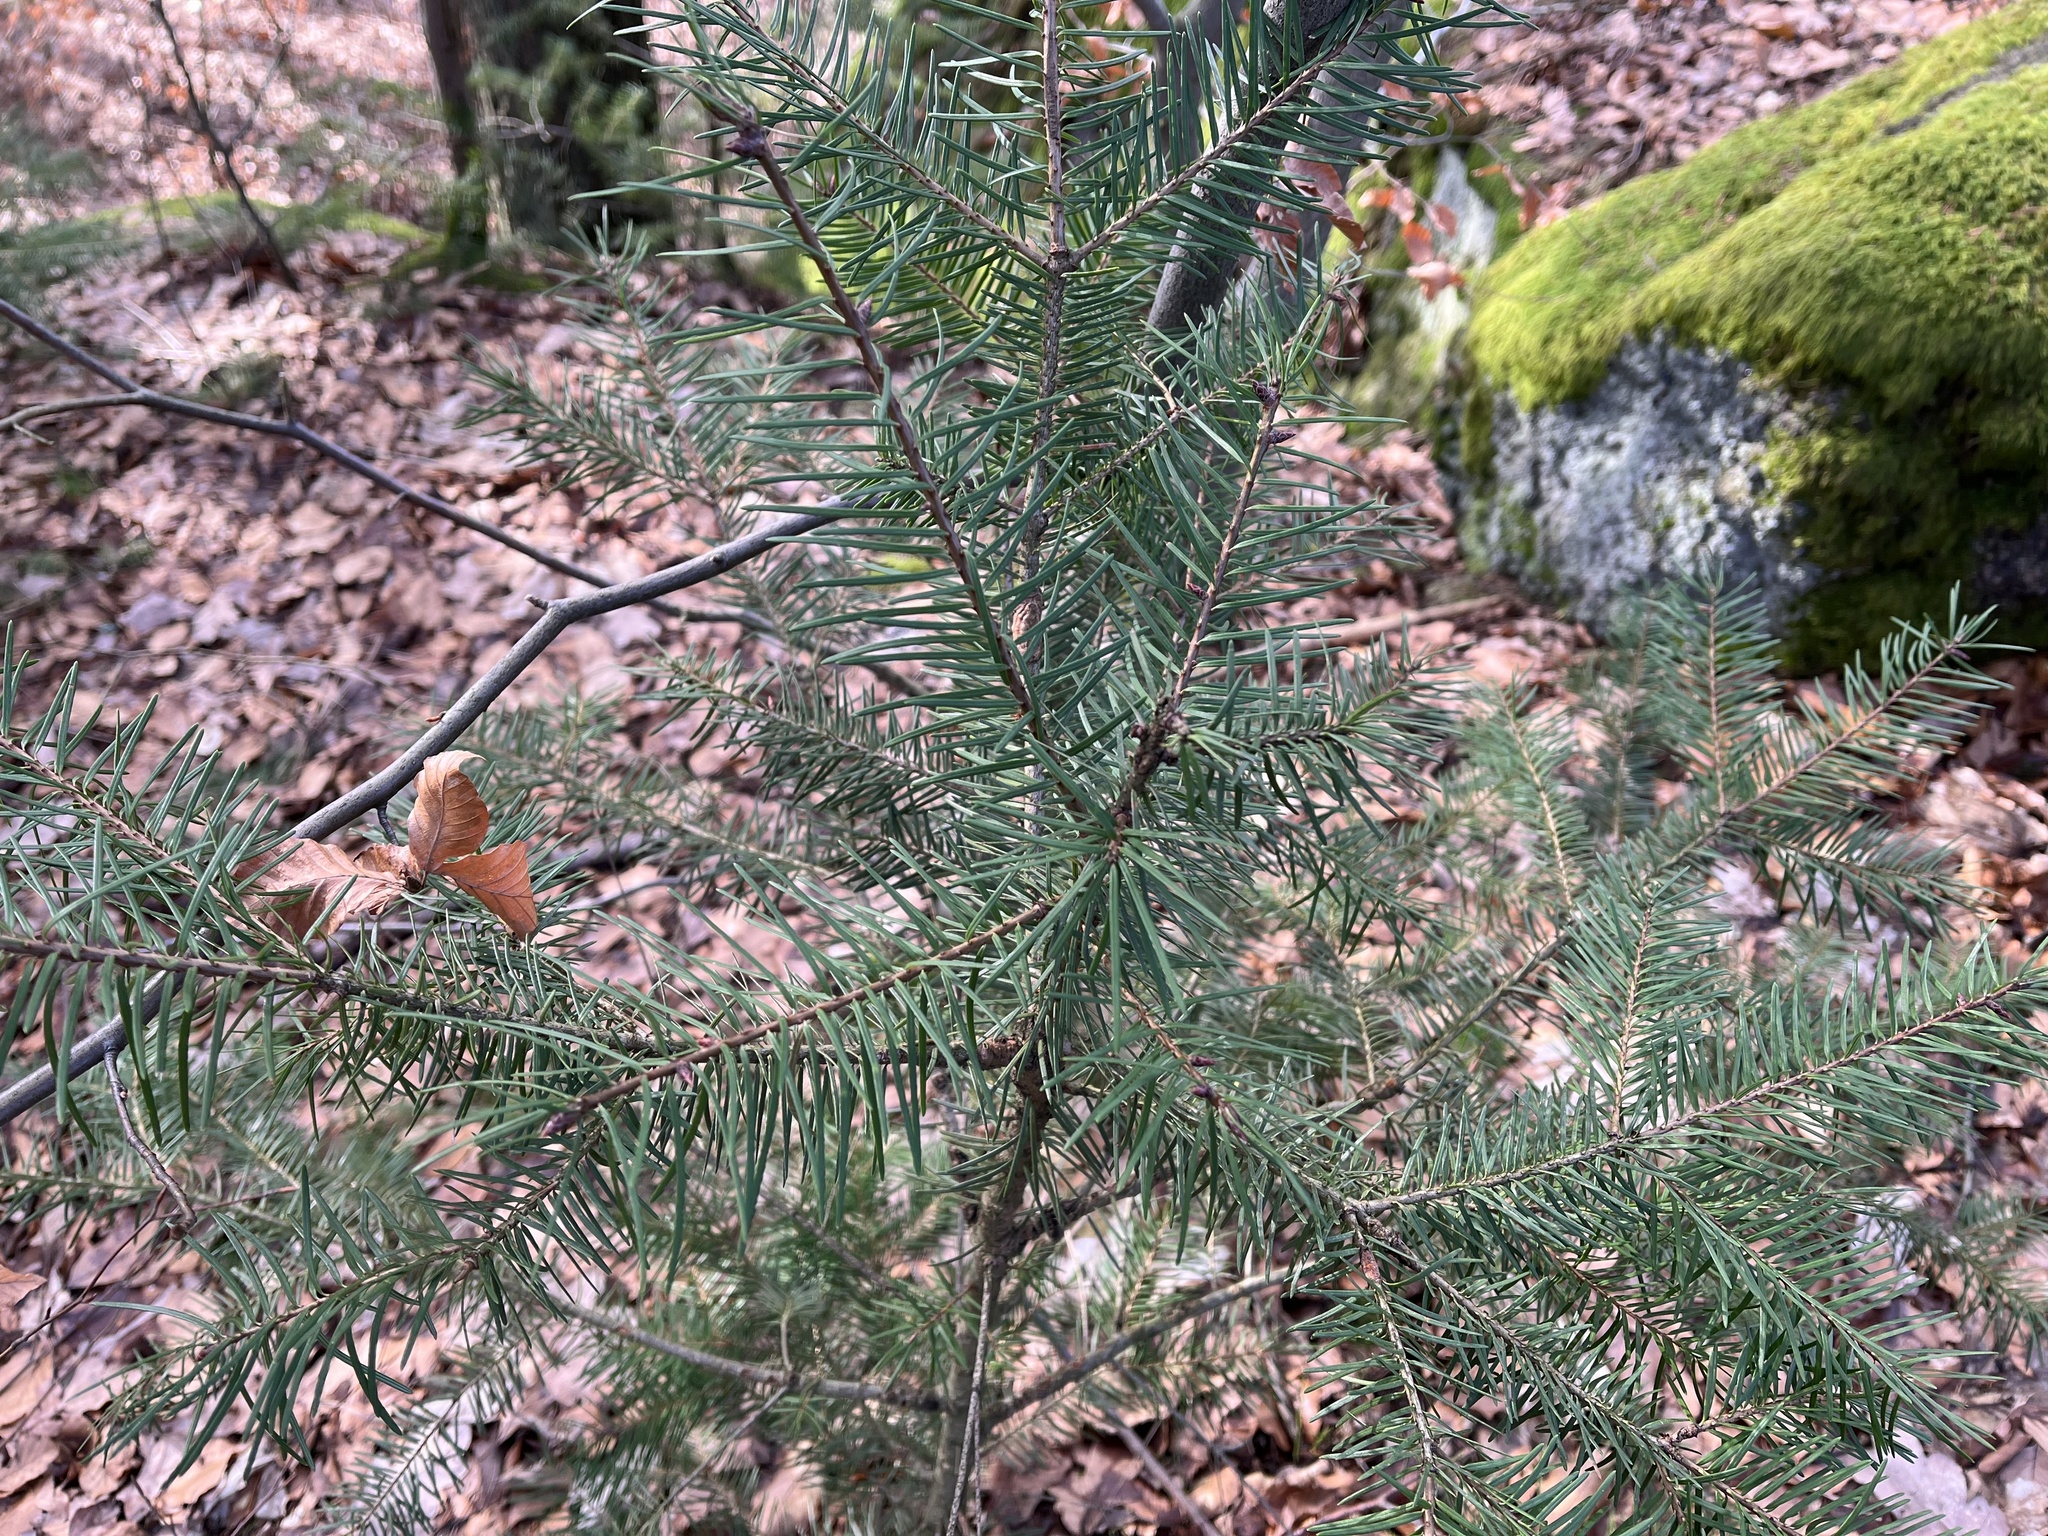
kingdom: Plantae
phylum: Tracheophyta
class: Pinopsida
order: Pinales
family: Pinaceae
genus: Pseudotsuga
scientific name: Pseudotsuga menziesii
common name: Douglas fir
